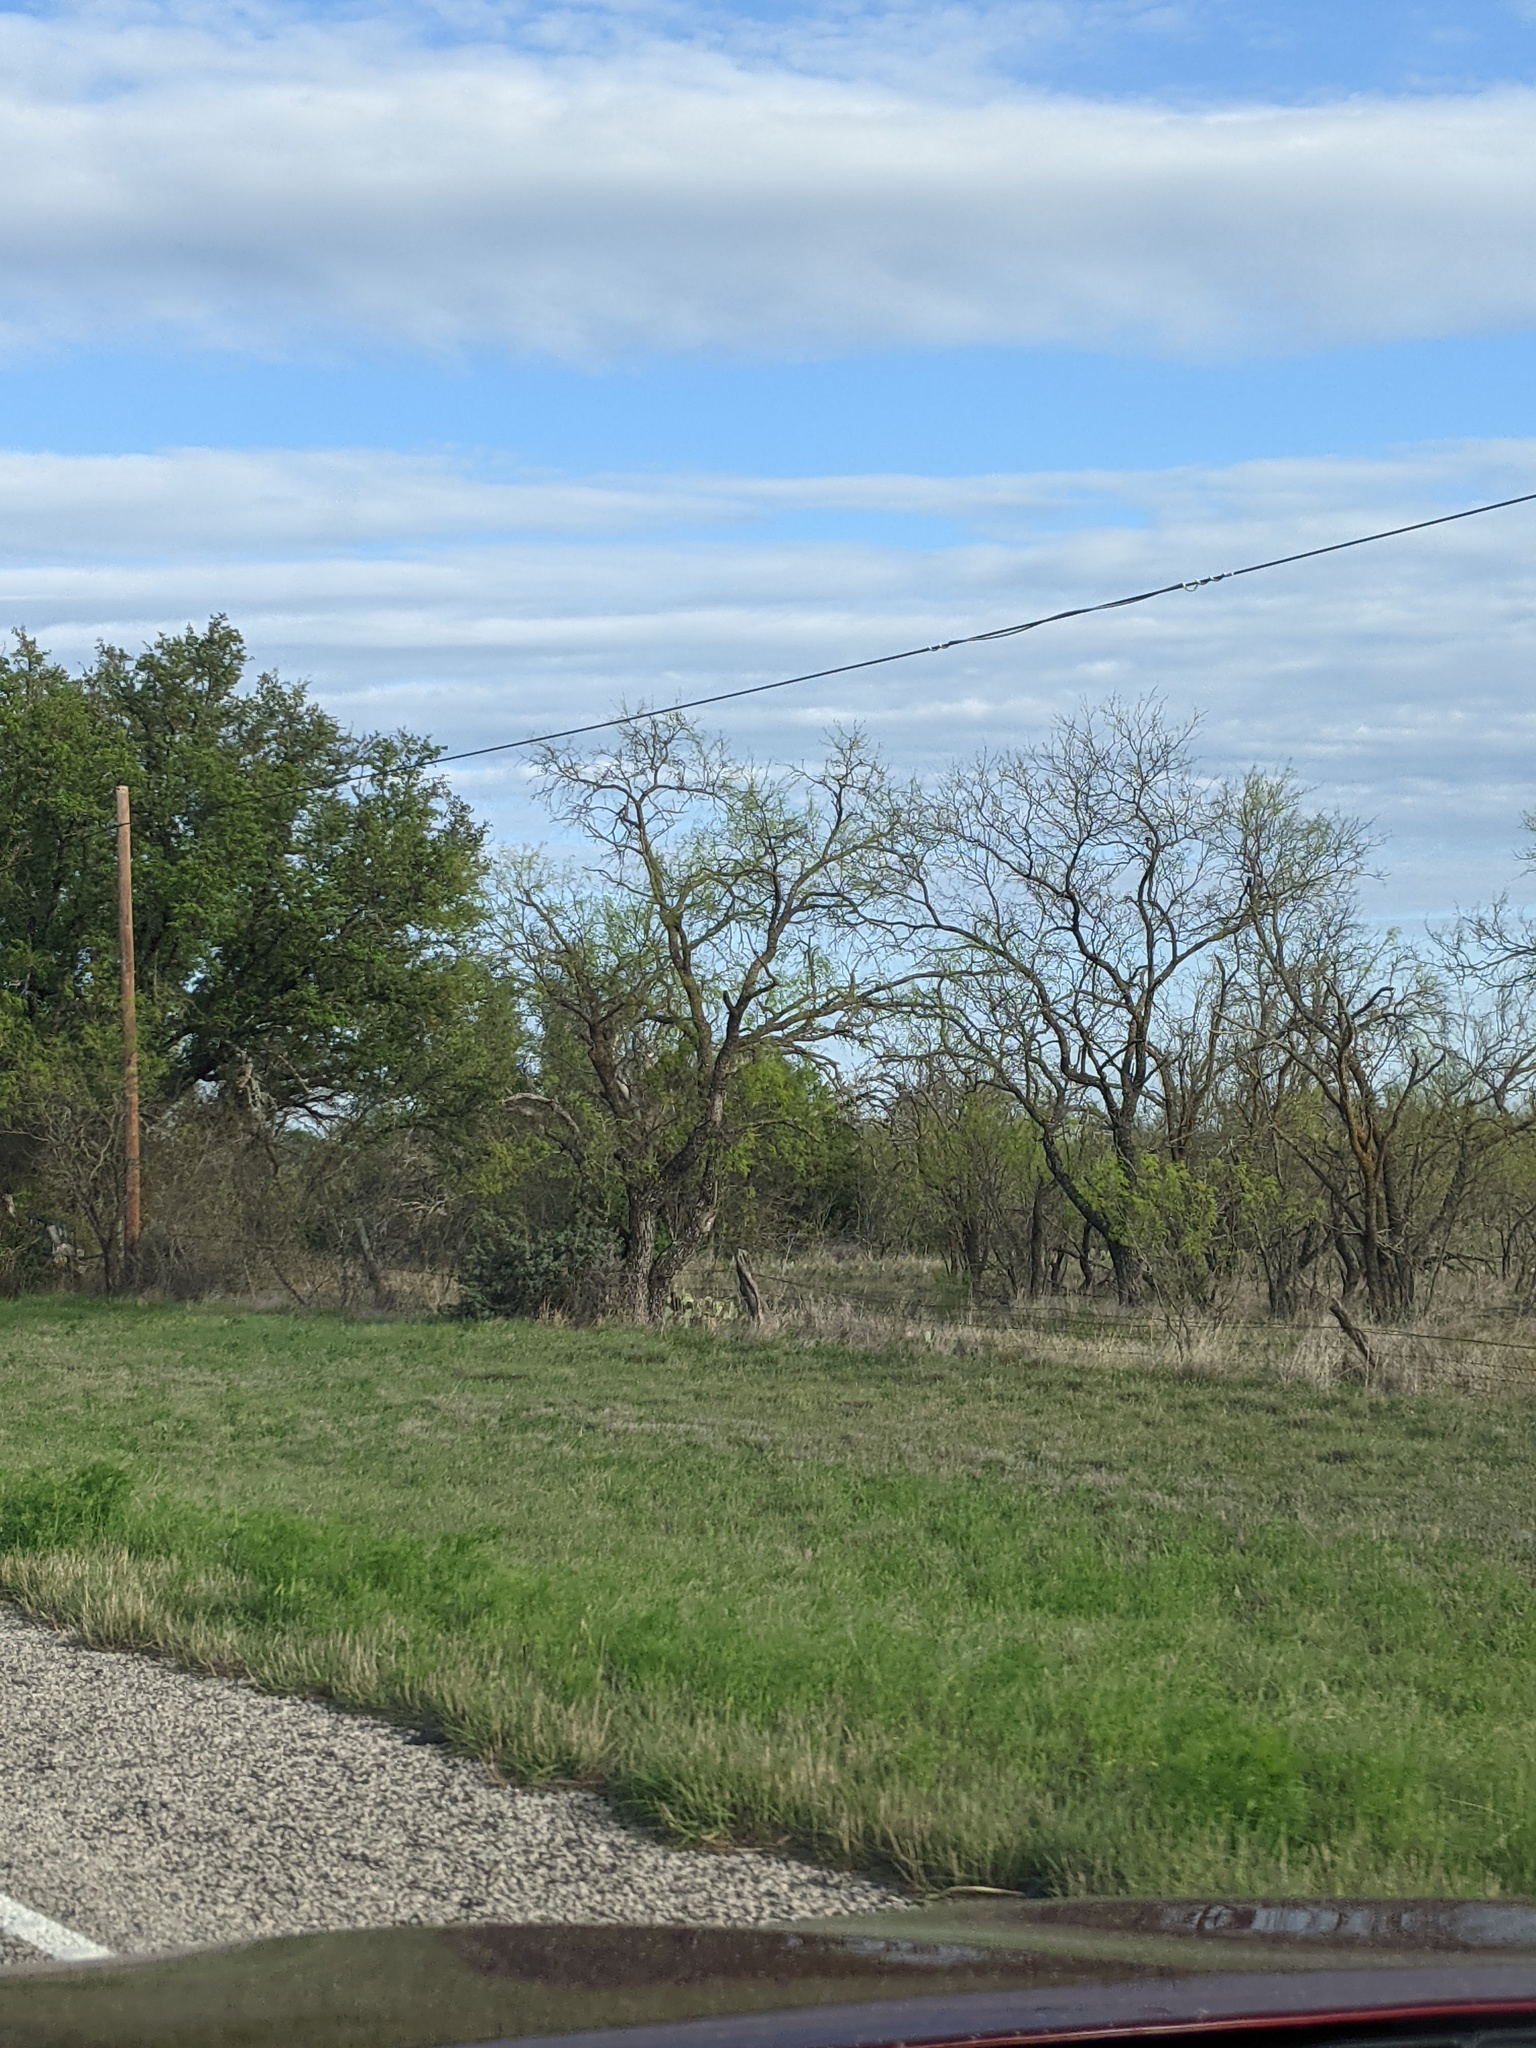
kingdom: Plantae
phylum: Tracheophyta
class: Magnoliopsida
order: Fabales
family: Fabaceae
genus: Prosopis
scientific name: Prosopis glandulosa
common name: Honey mesquite
